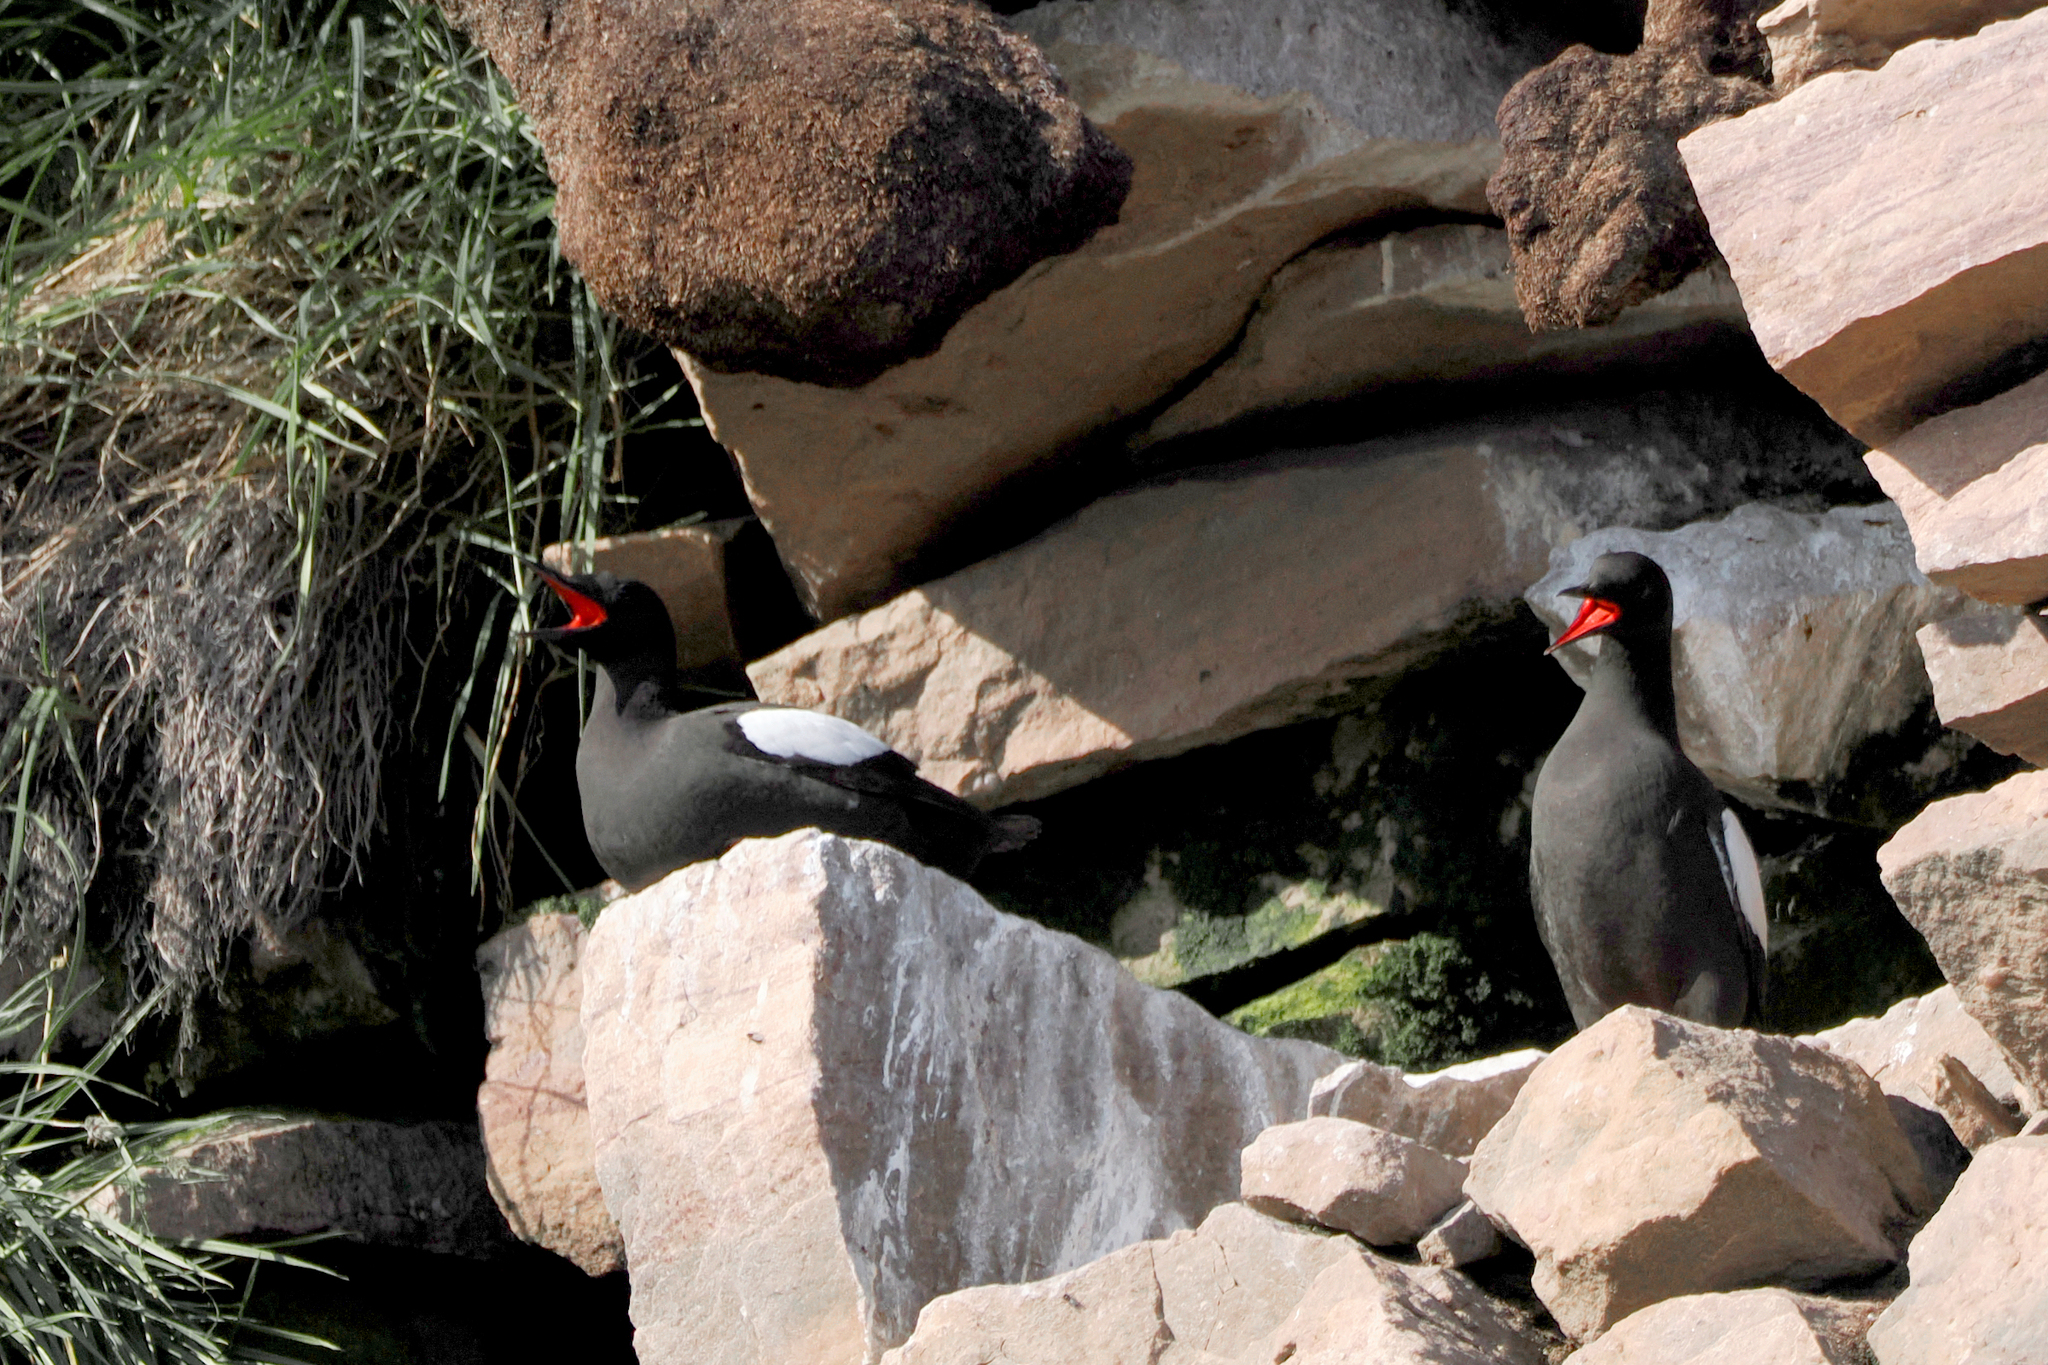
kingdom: Animalia
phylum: Chordata
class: Aves
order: Charadriiformes
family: Alcidae
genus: Cepphus
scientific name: Cepphus grylle
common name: Black guillemot
